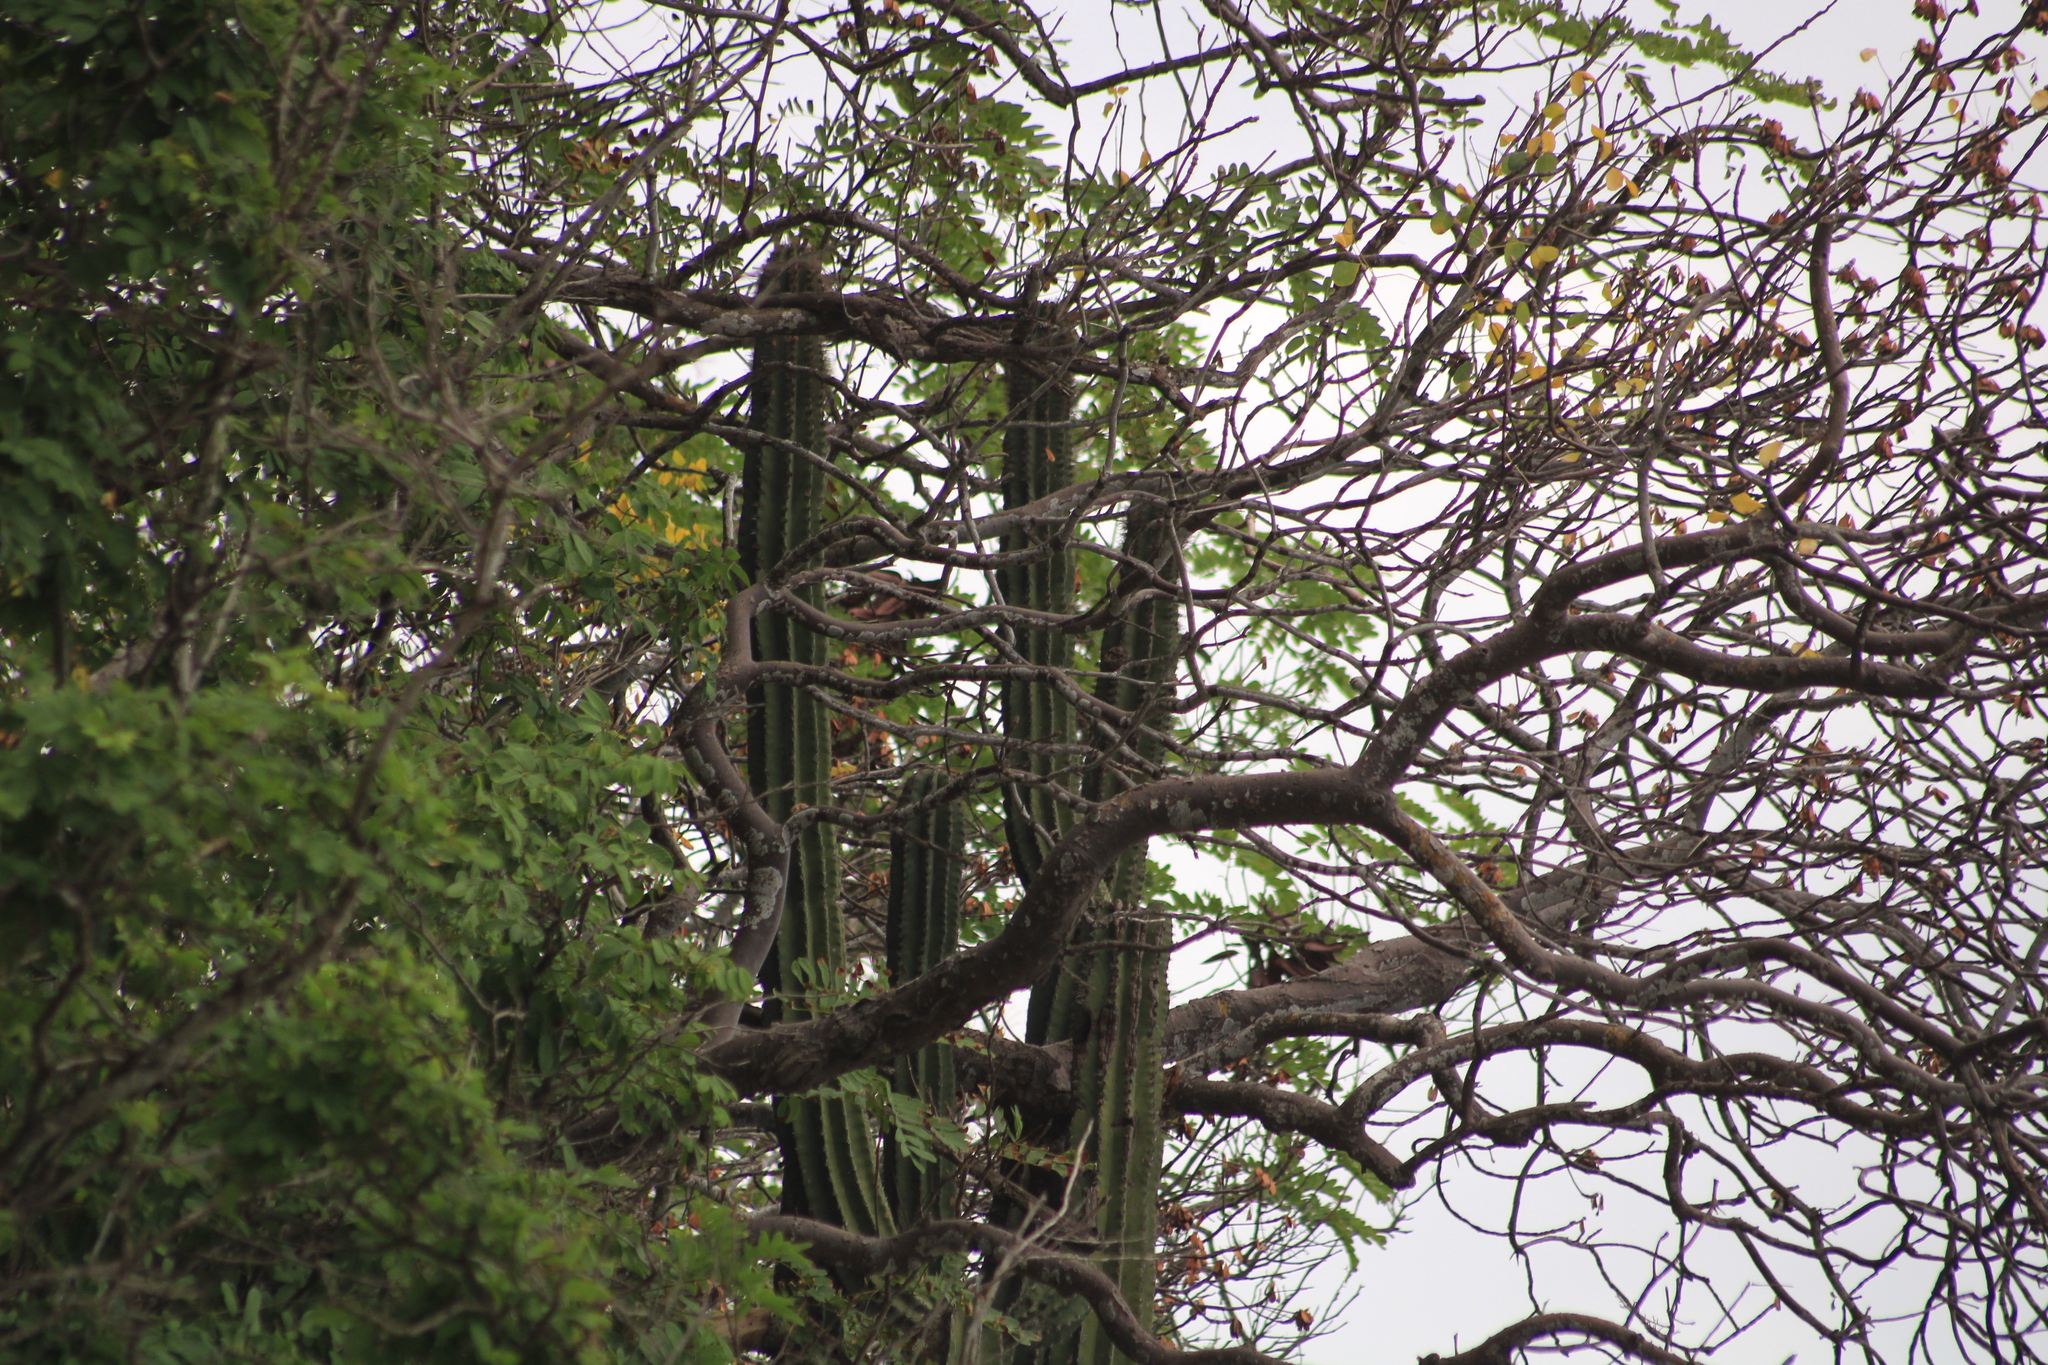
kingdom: Plantae
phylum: Tracheophyta
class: Magnoliopsida
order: Caryophyllales
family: Cactaceae
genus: Cephalocereus
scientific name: Cephalocereus nudus
